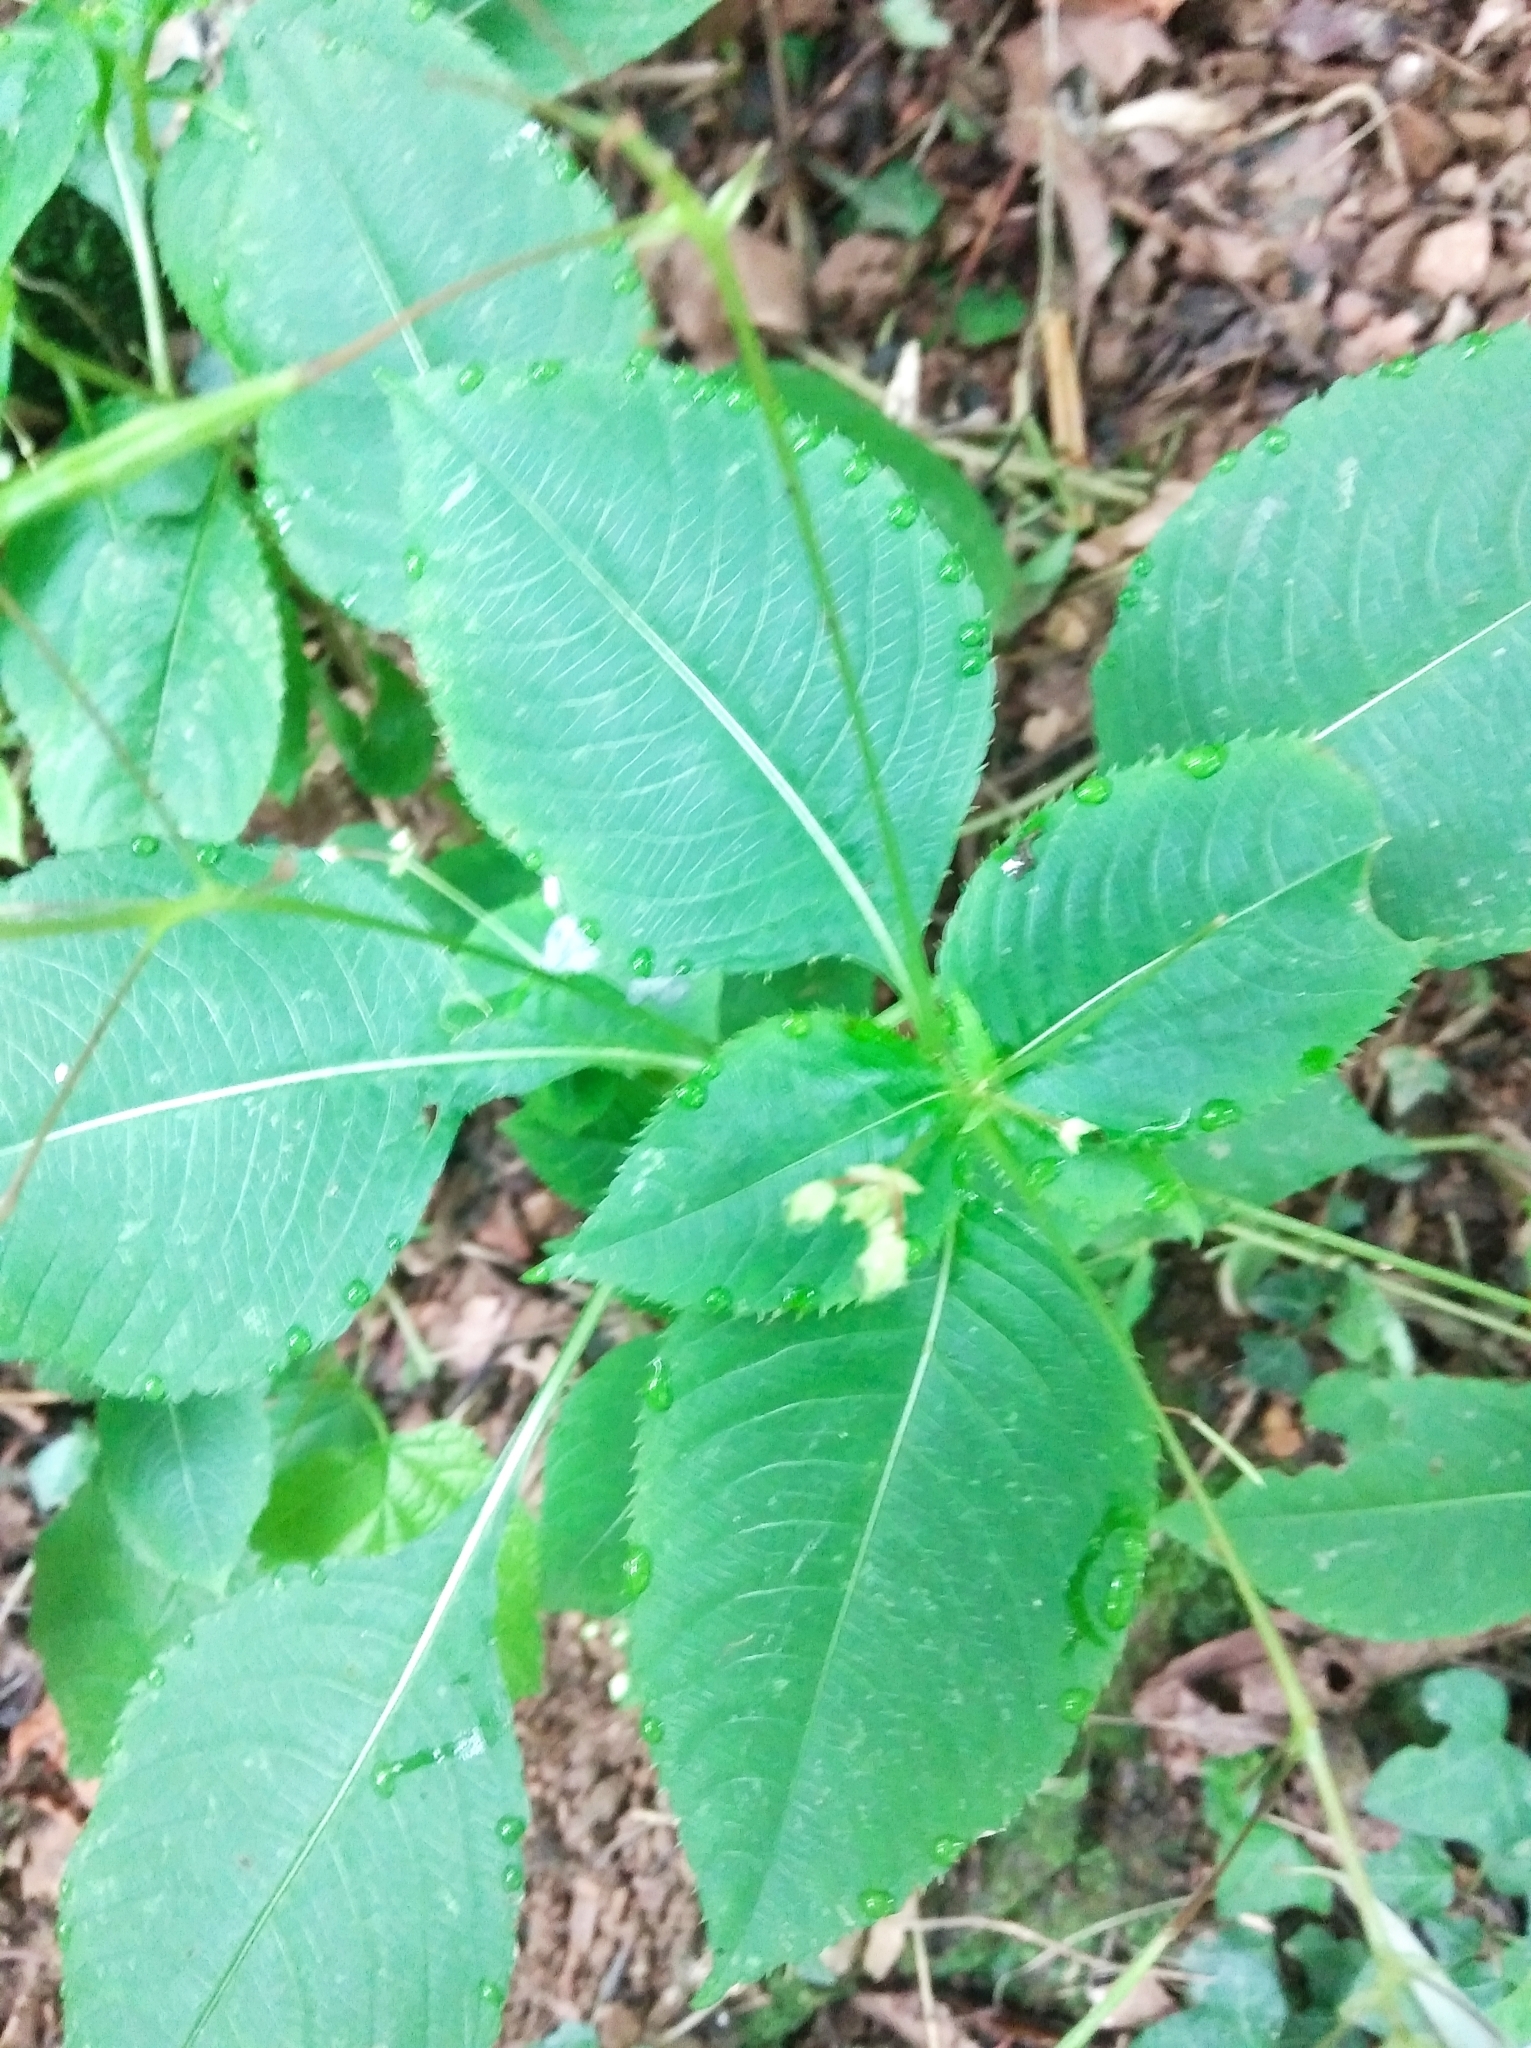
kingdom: Plantae
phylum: Tracheophyta
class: Magnoliopsida
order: Ericales
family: Balsaminaceae
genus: Impatiens
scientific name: Impatiens balfourii
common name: Balfour's touch-me-not
